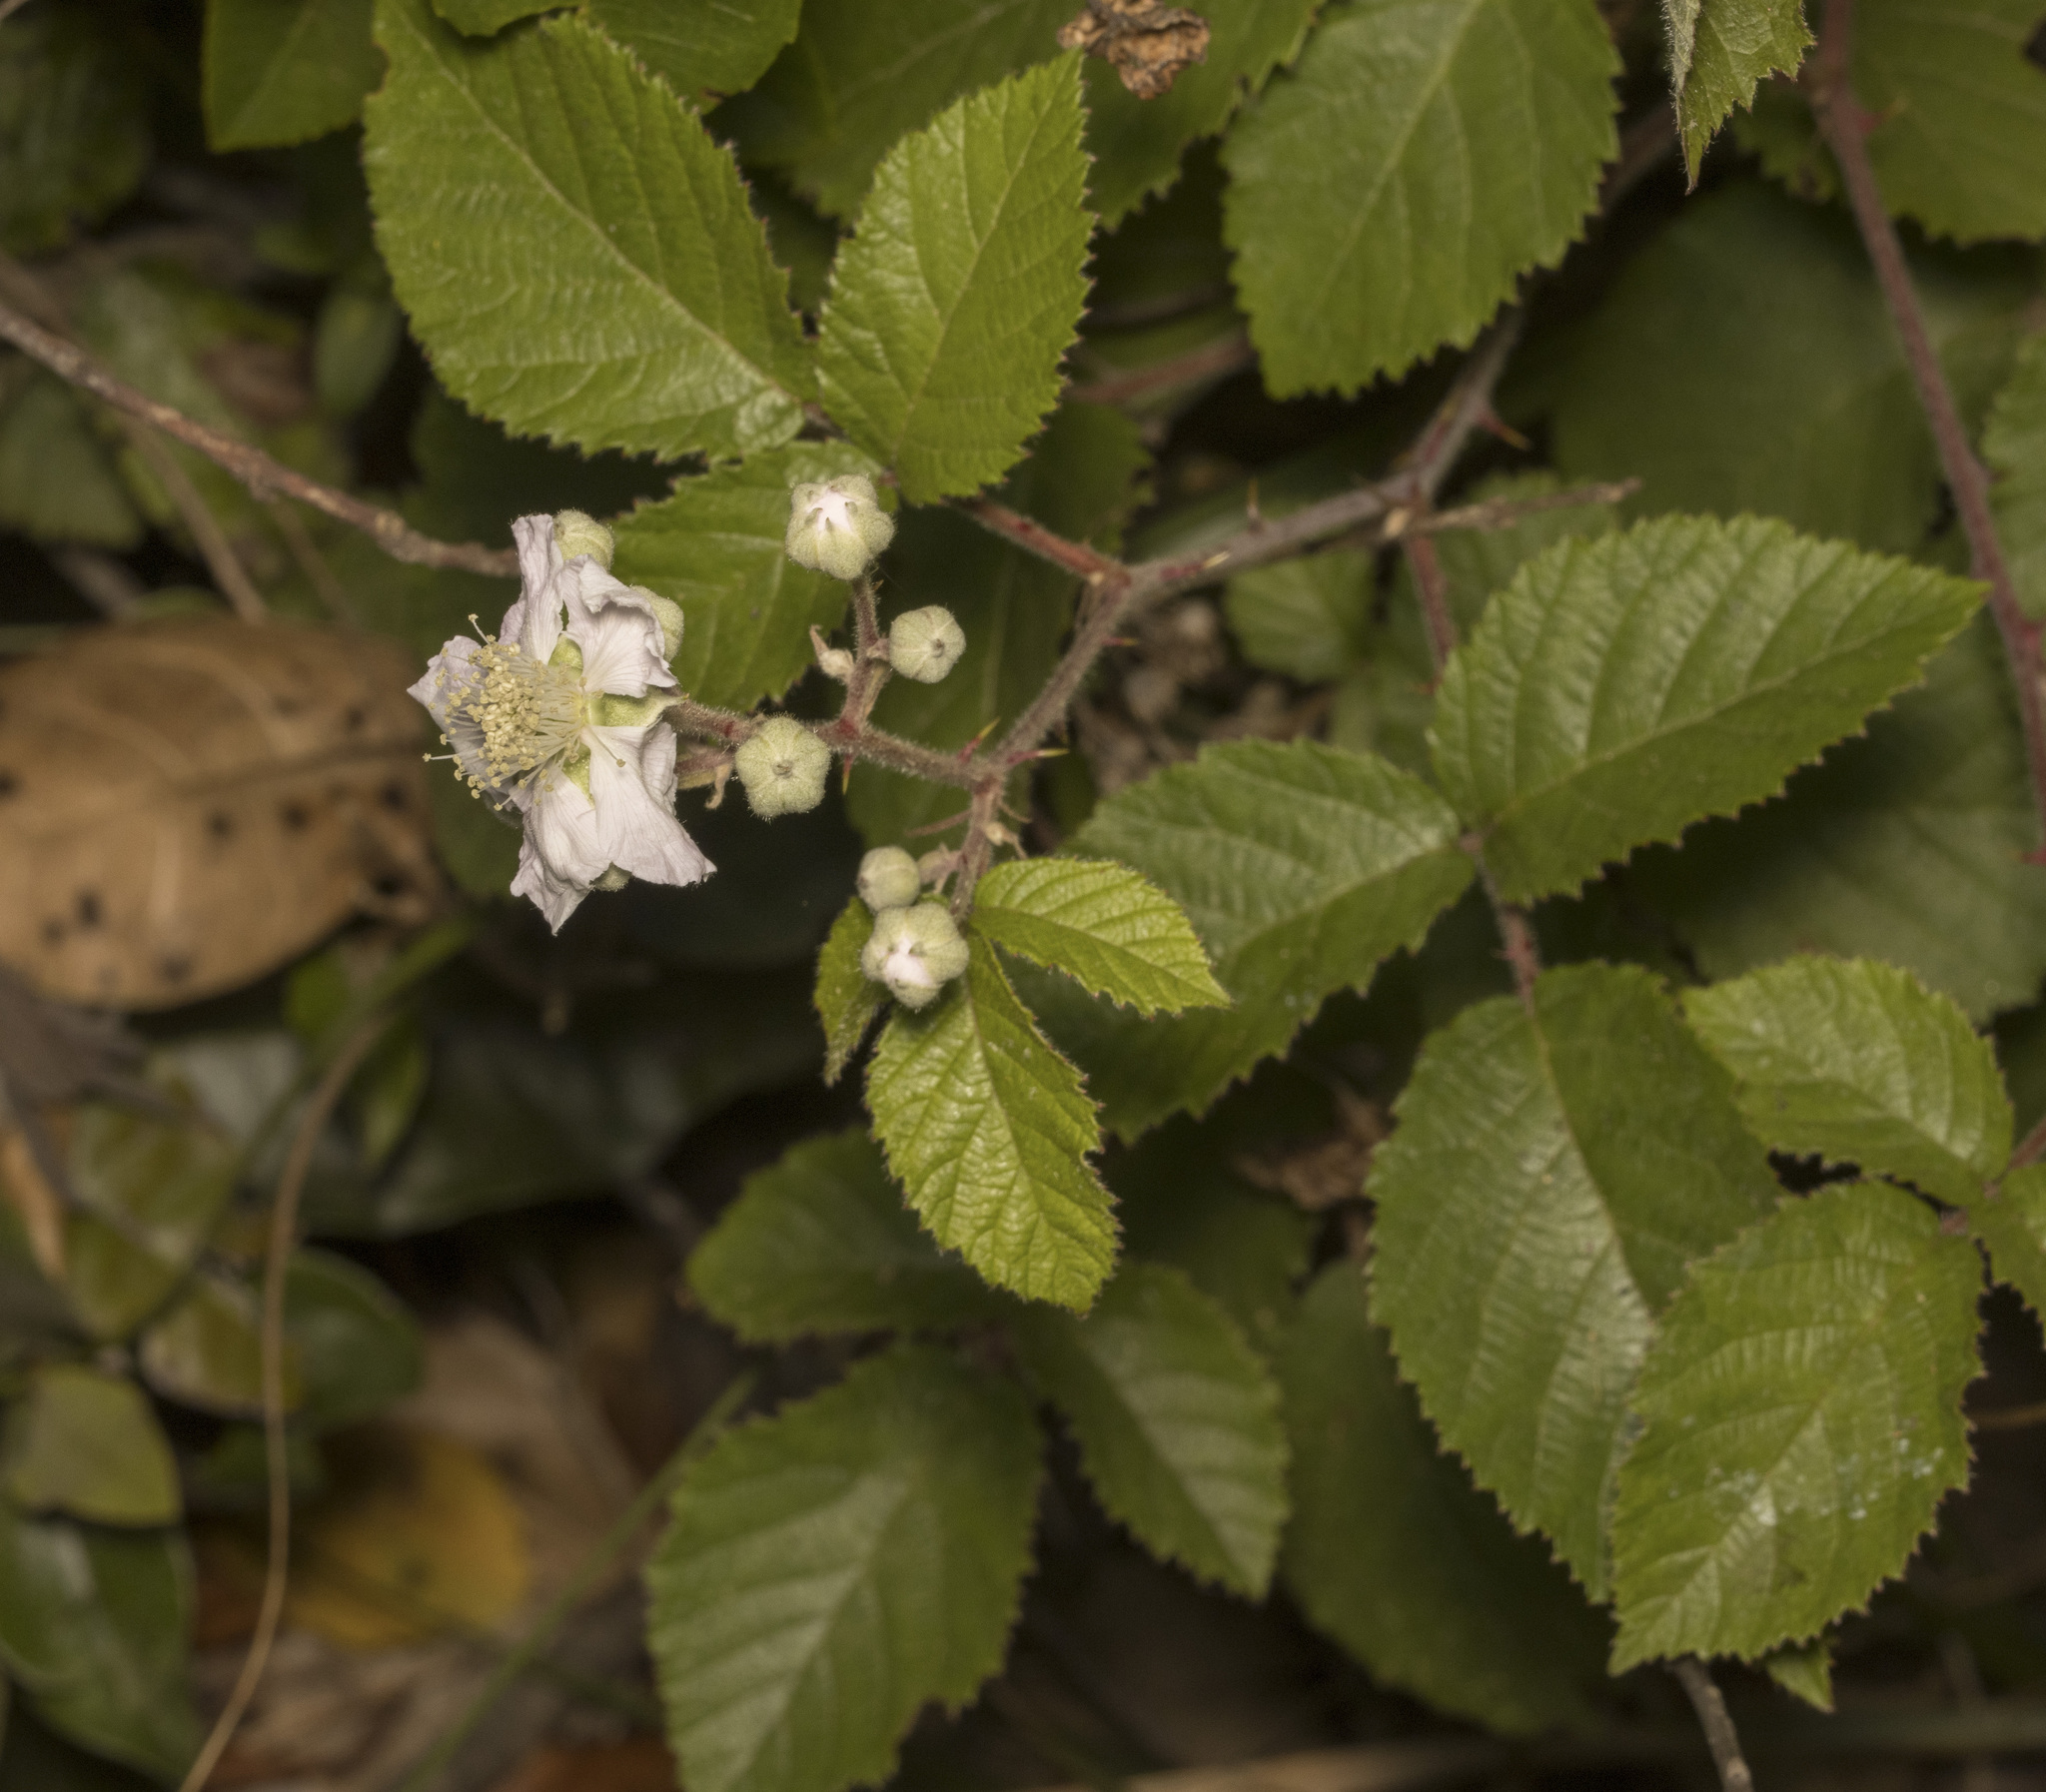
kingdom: Plantae
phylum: Tracheophyta
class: Magnoliopsida
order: Rosales
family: Rosaceae
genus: Rubus
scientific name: Rubus ulmifolius
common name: Elmleaf blackberry
